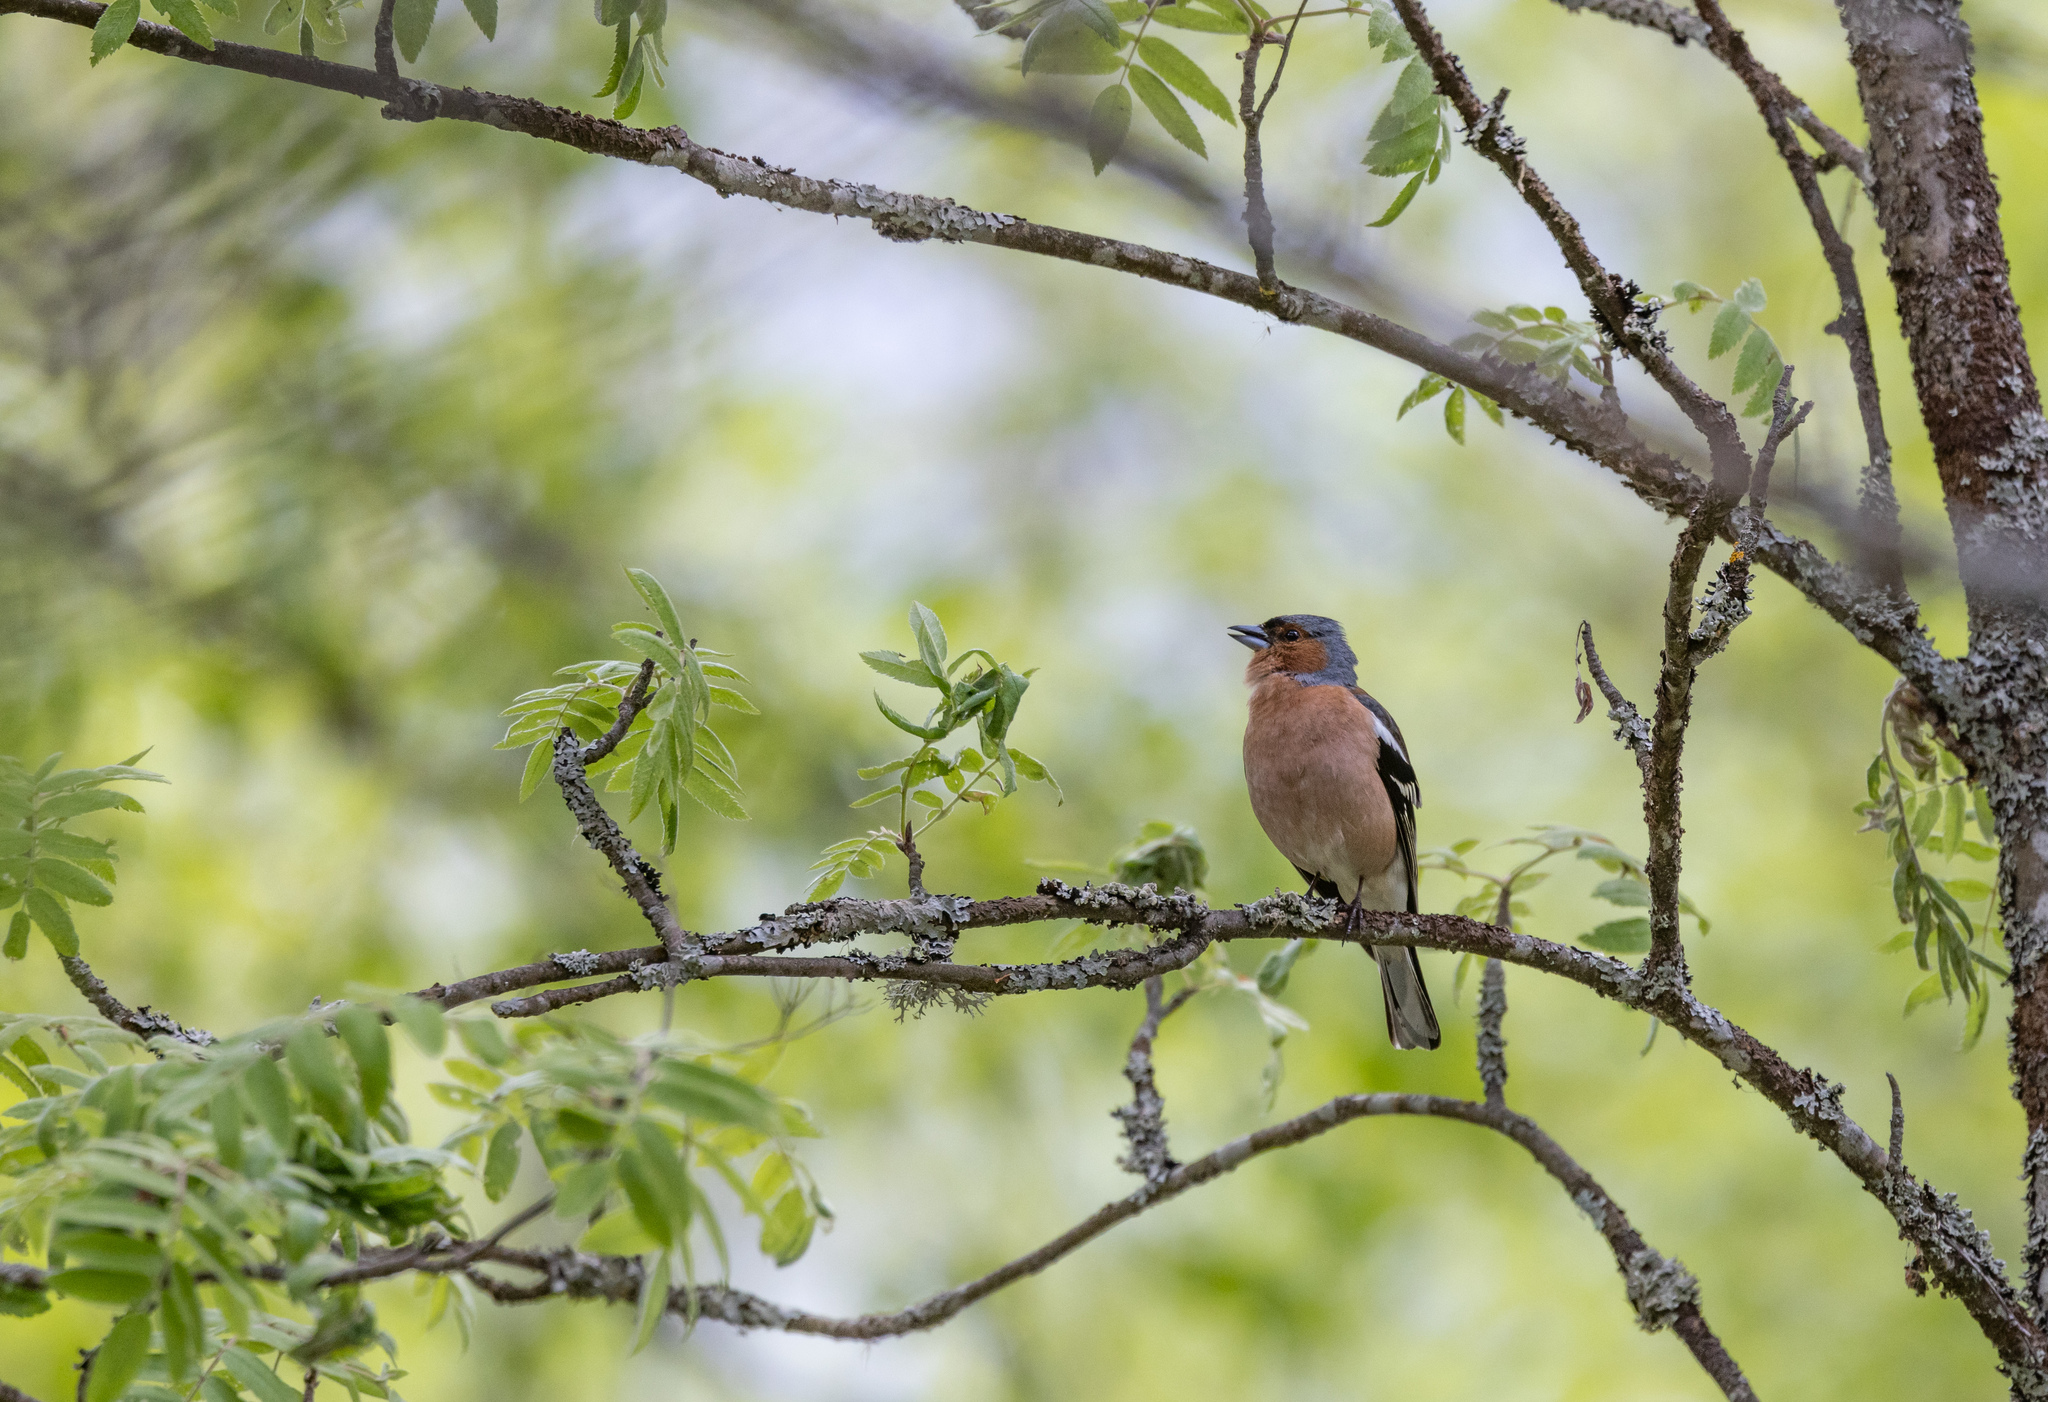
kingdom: Animalia
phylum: Chordata
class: Aves
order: Passeriformes
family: Fringillidae
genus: Fringilla
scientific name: Fringilla coelebs
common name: Common chaffinch
